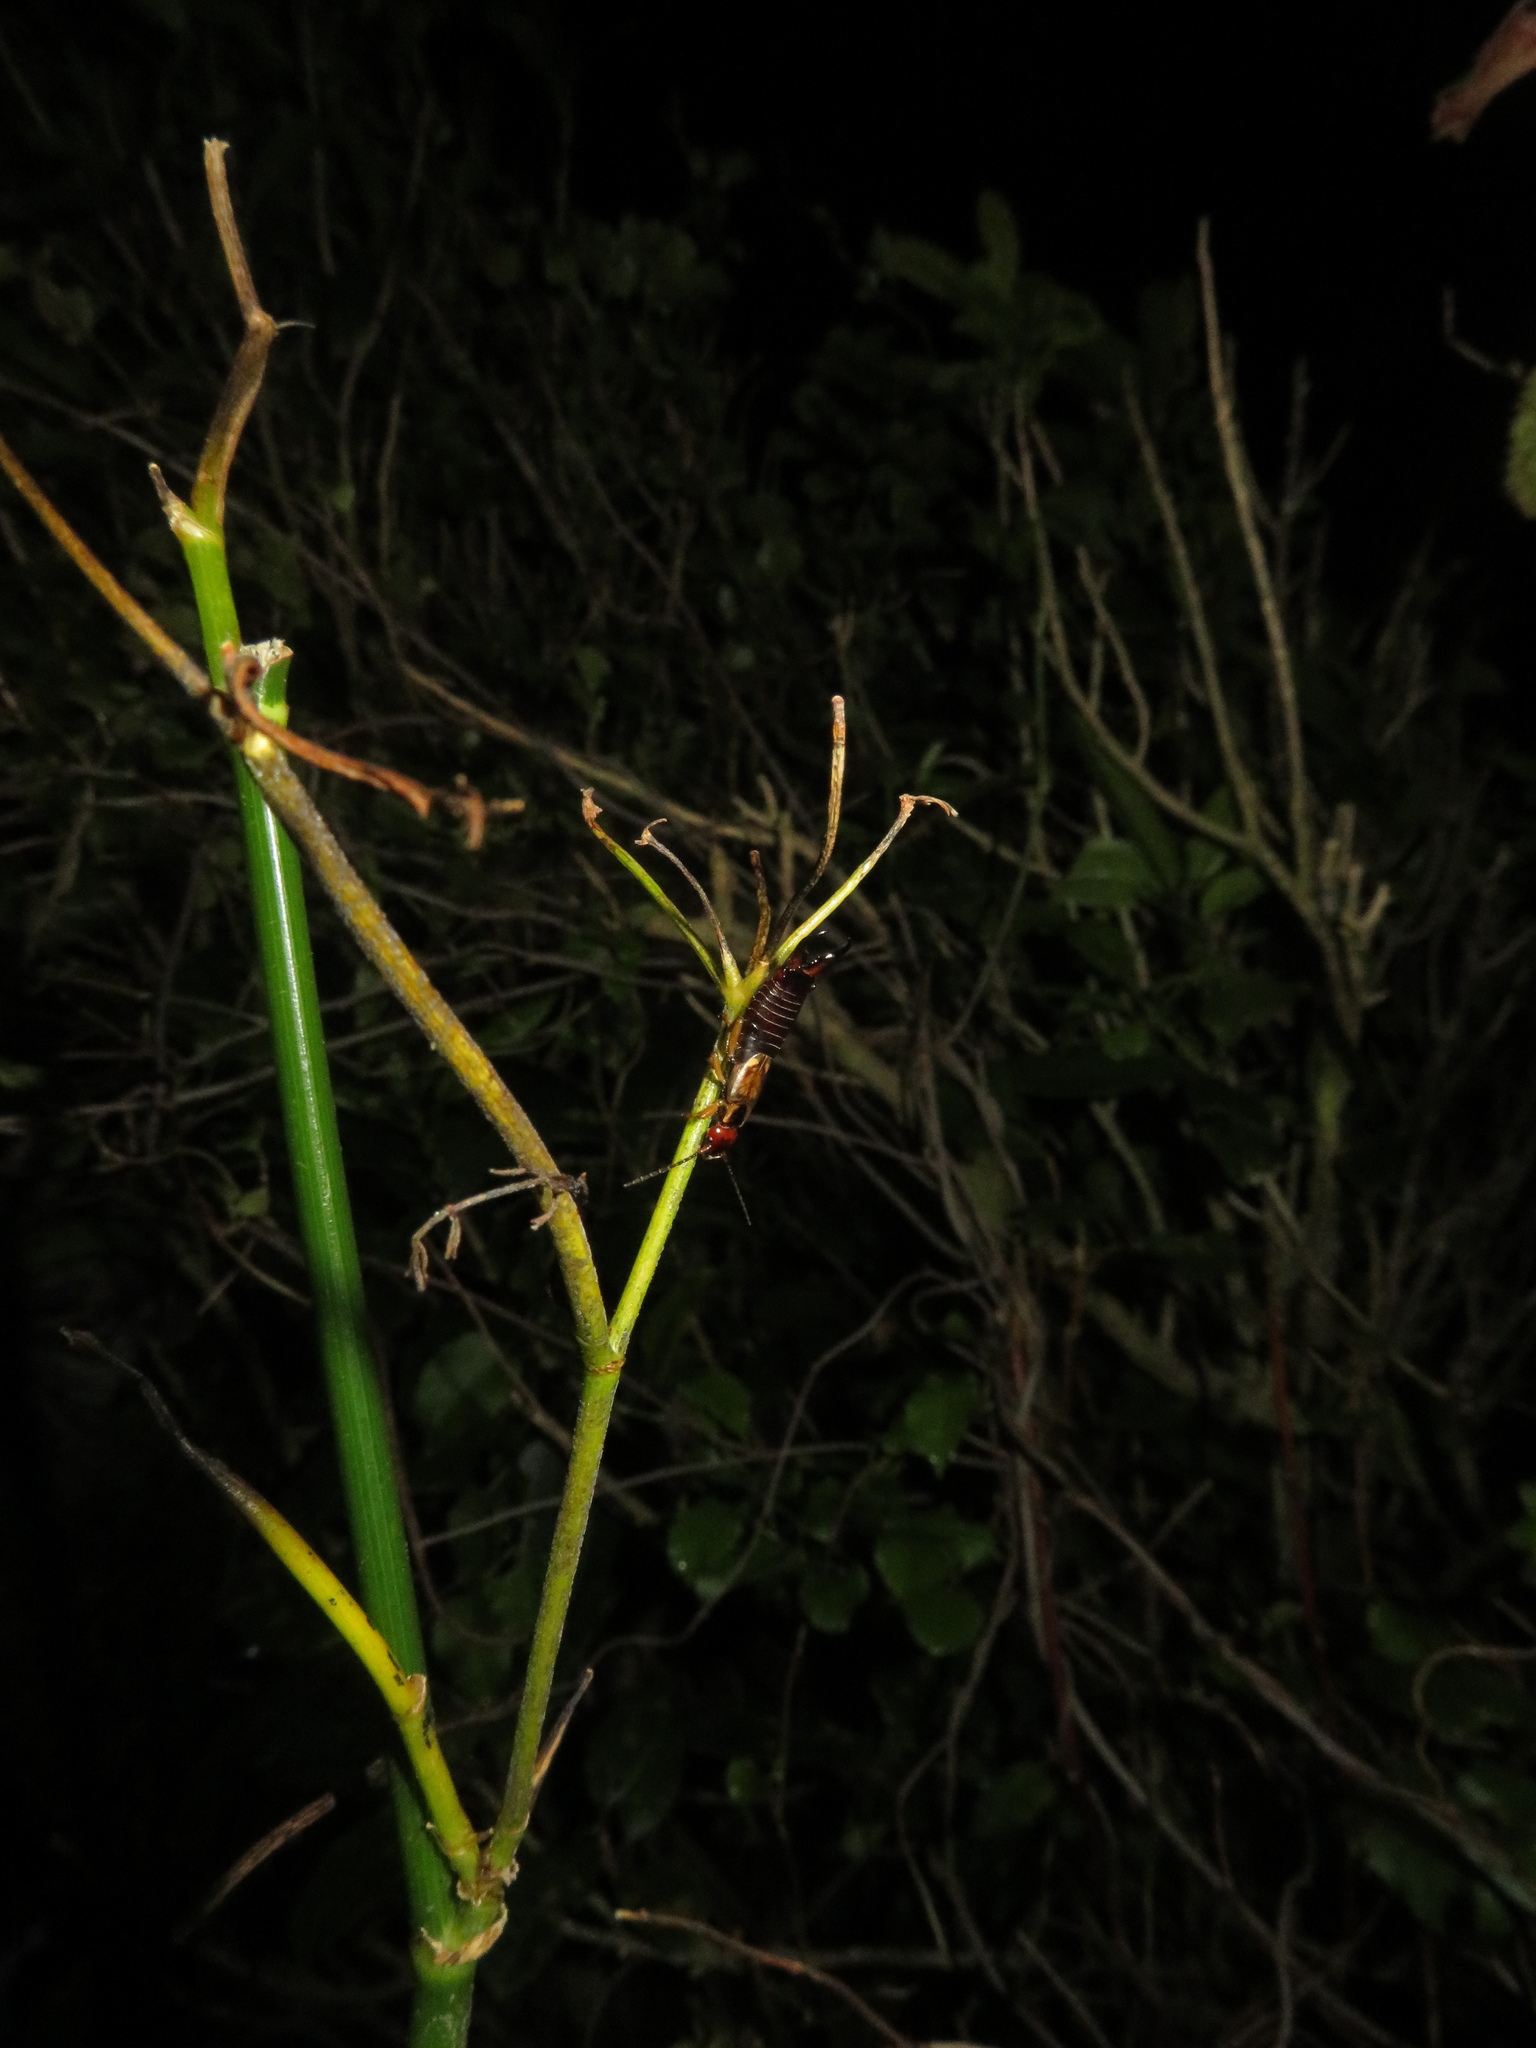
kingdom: Animalia
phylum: Arthropoda
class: Insecta
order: Dermaptera
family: Forficulidae
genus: Forficula
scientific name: Forficula
